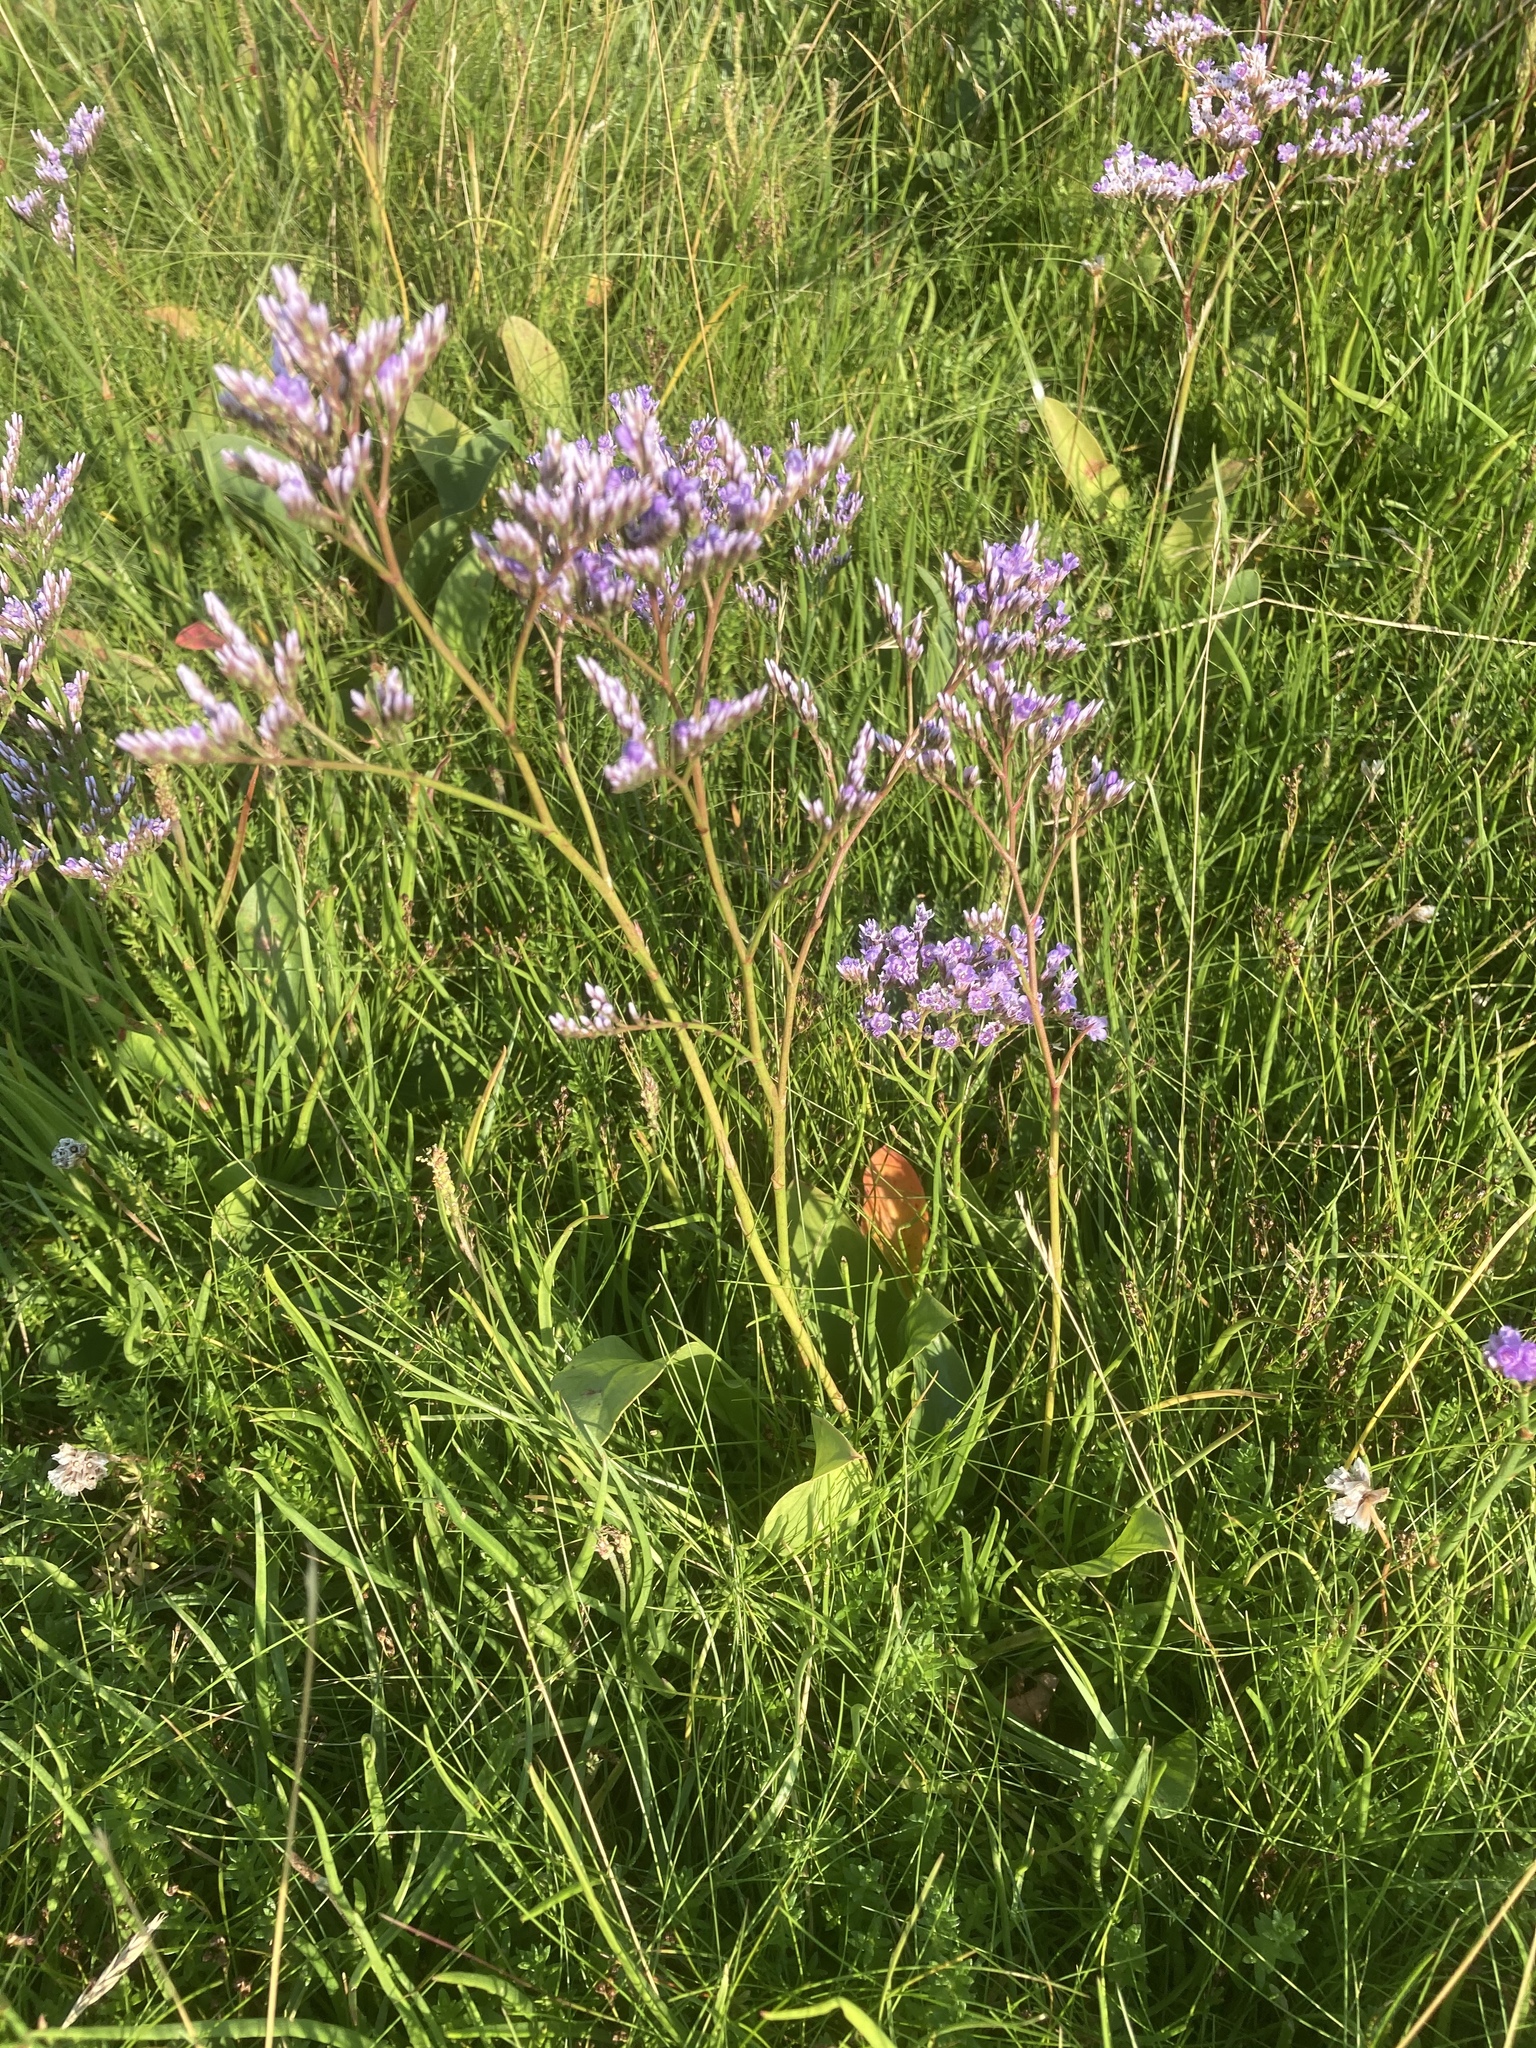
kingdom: Plantae
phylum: Tracheophyta
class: Magnoliopsida
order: Caryophyllales
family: Plumbaginaceae
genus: Limonium
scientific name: Limonium vulgare
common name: Common sea-lavender
